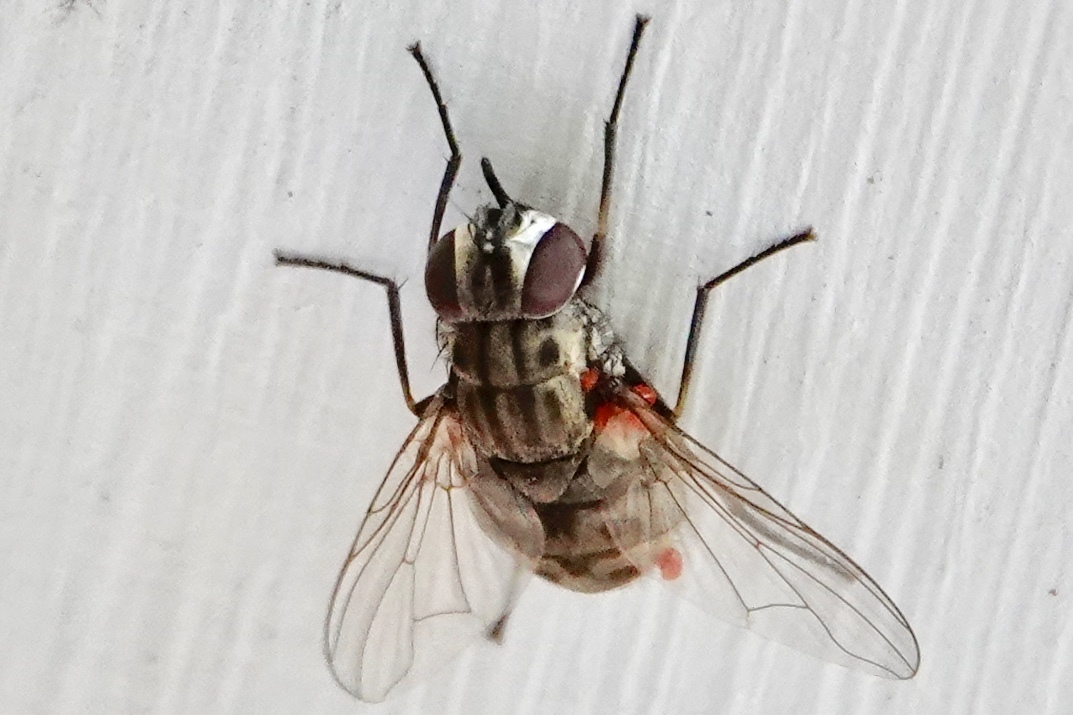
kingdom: Animalia
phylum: Arthropoda
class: Insecta
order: Diptera
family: Muscidae
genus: Stomoxys
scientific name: Stomoxys calcitrans
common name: Stable fly
